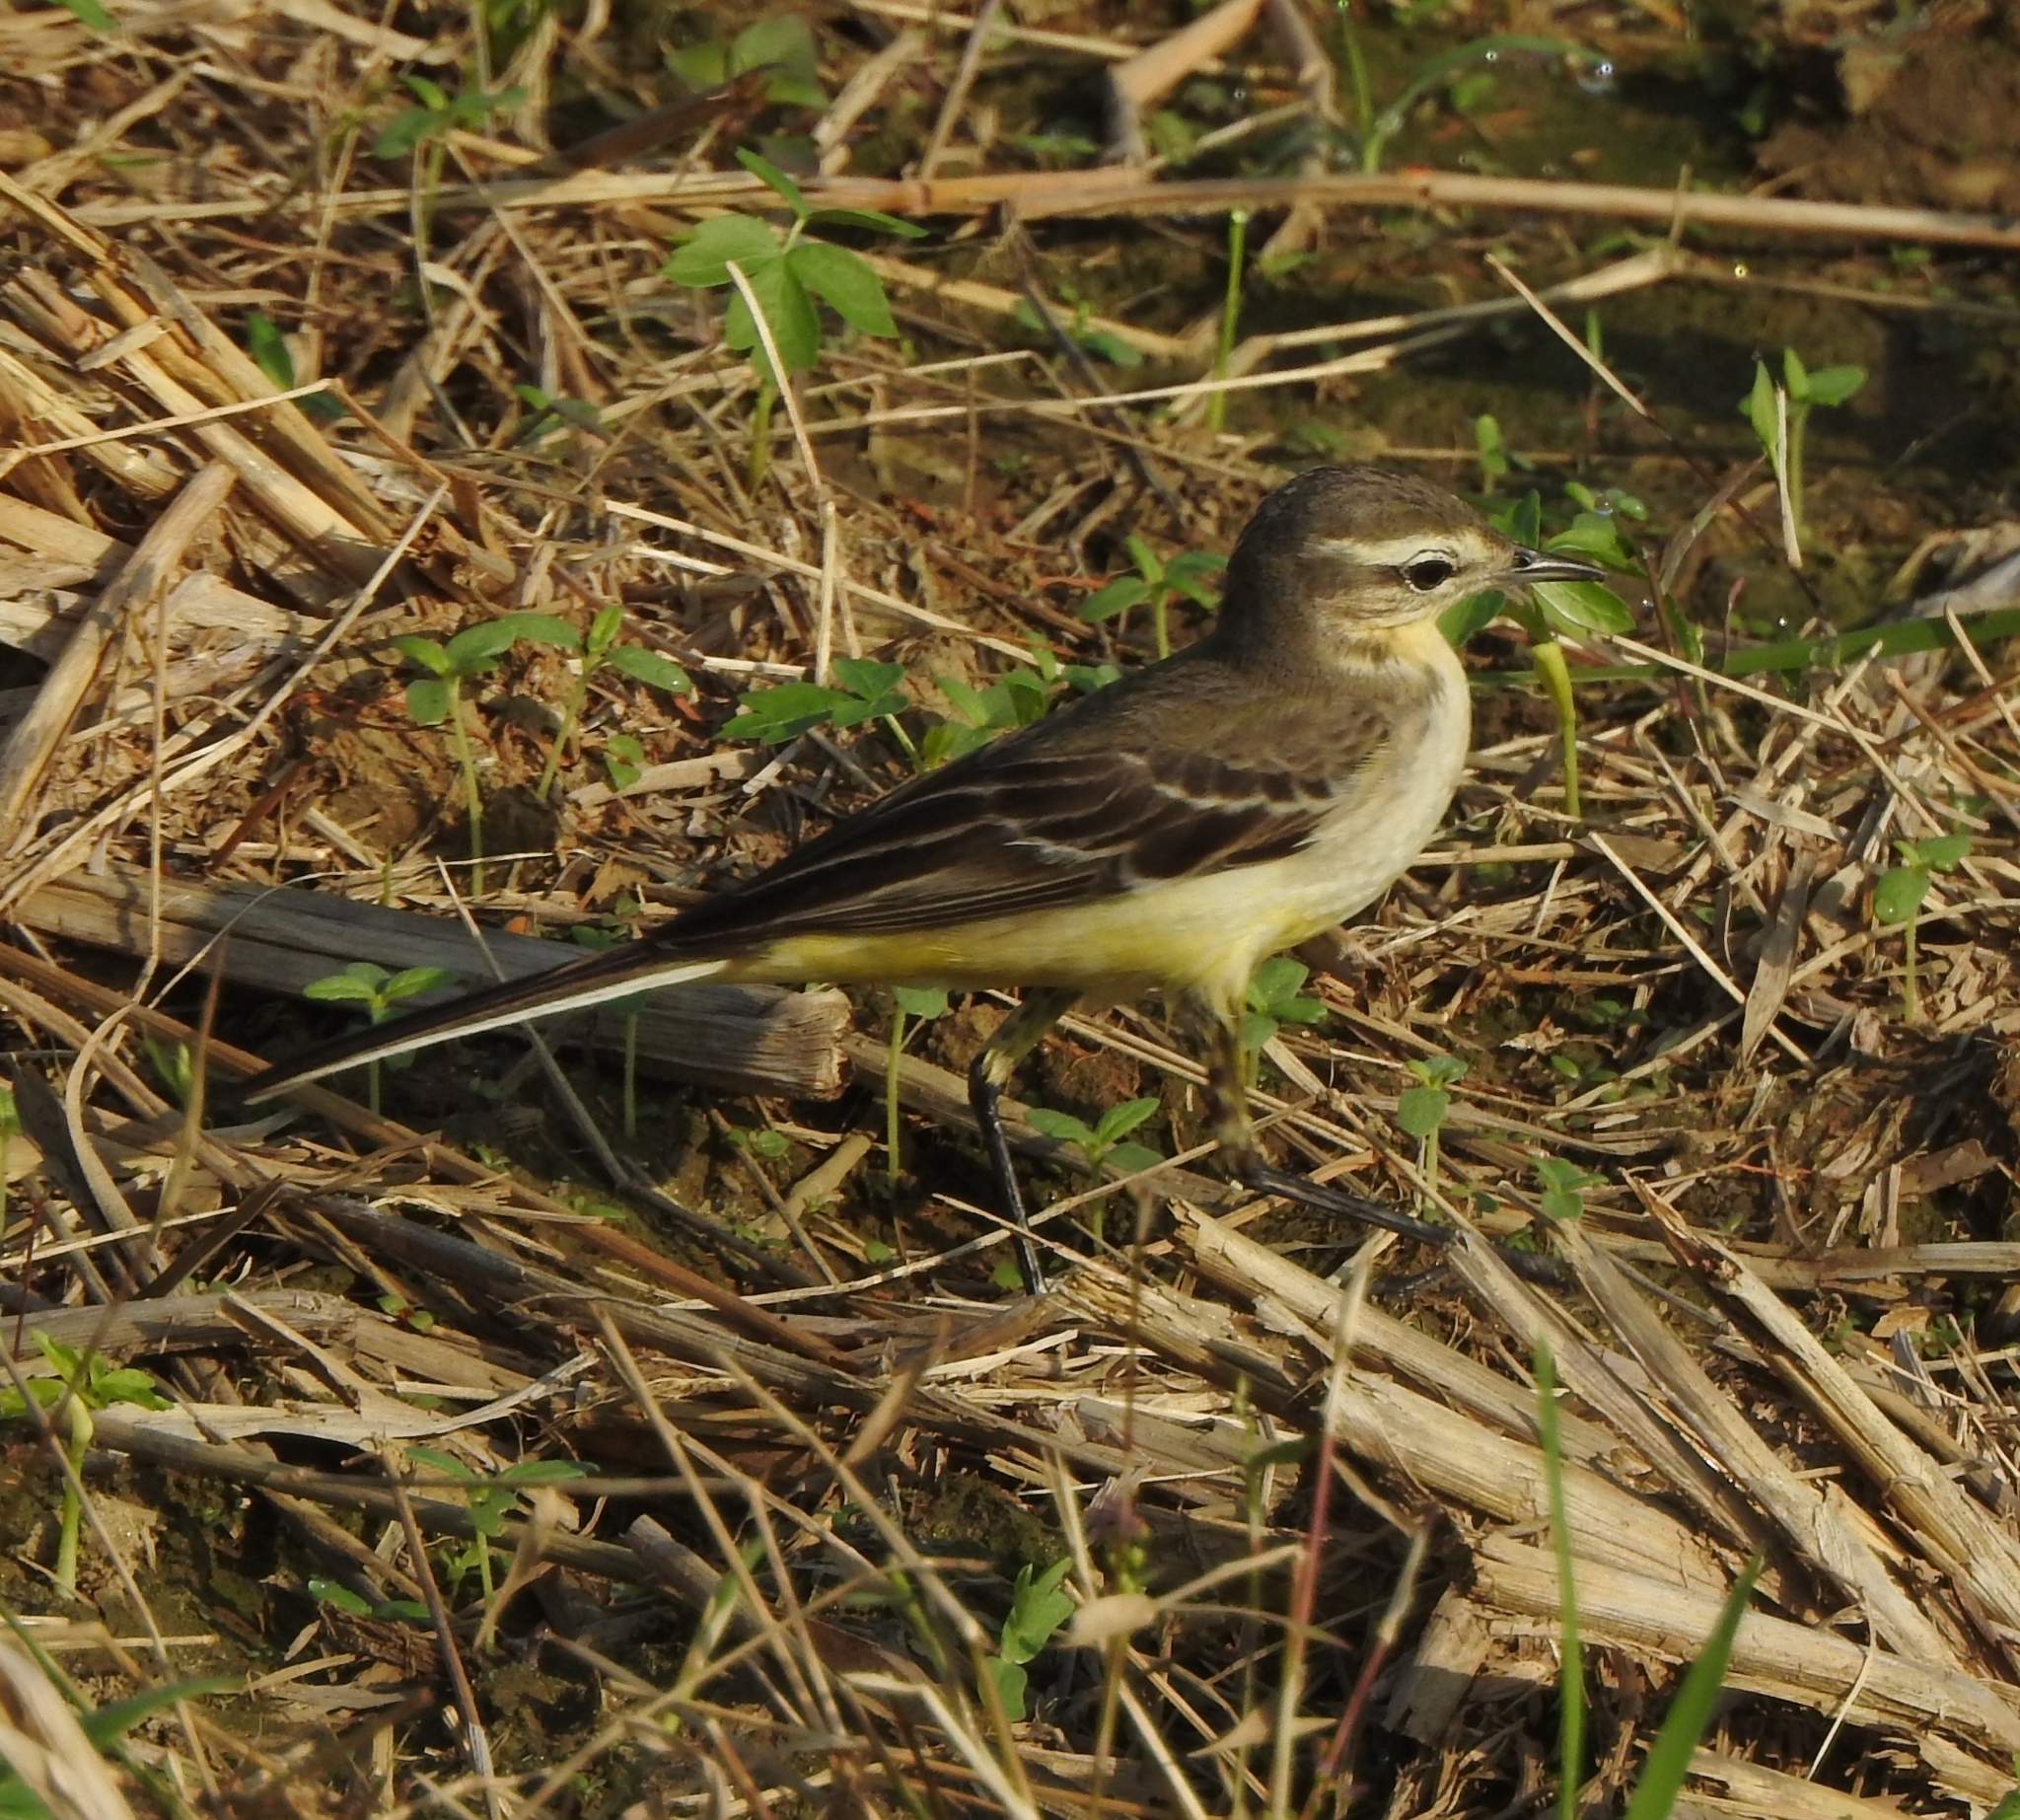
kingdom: Animalia
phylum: Chordata
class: Aves
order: Passeriformes
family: Motacillidae
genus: Motacilla
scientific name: Motacilla flava
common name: Western yellow wagtail
